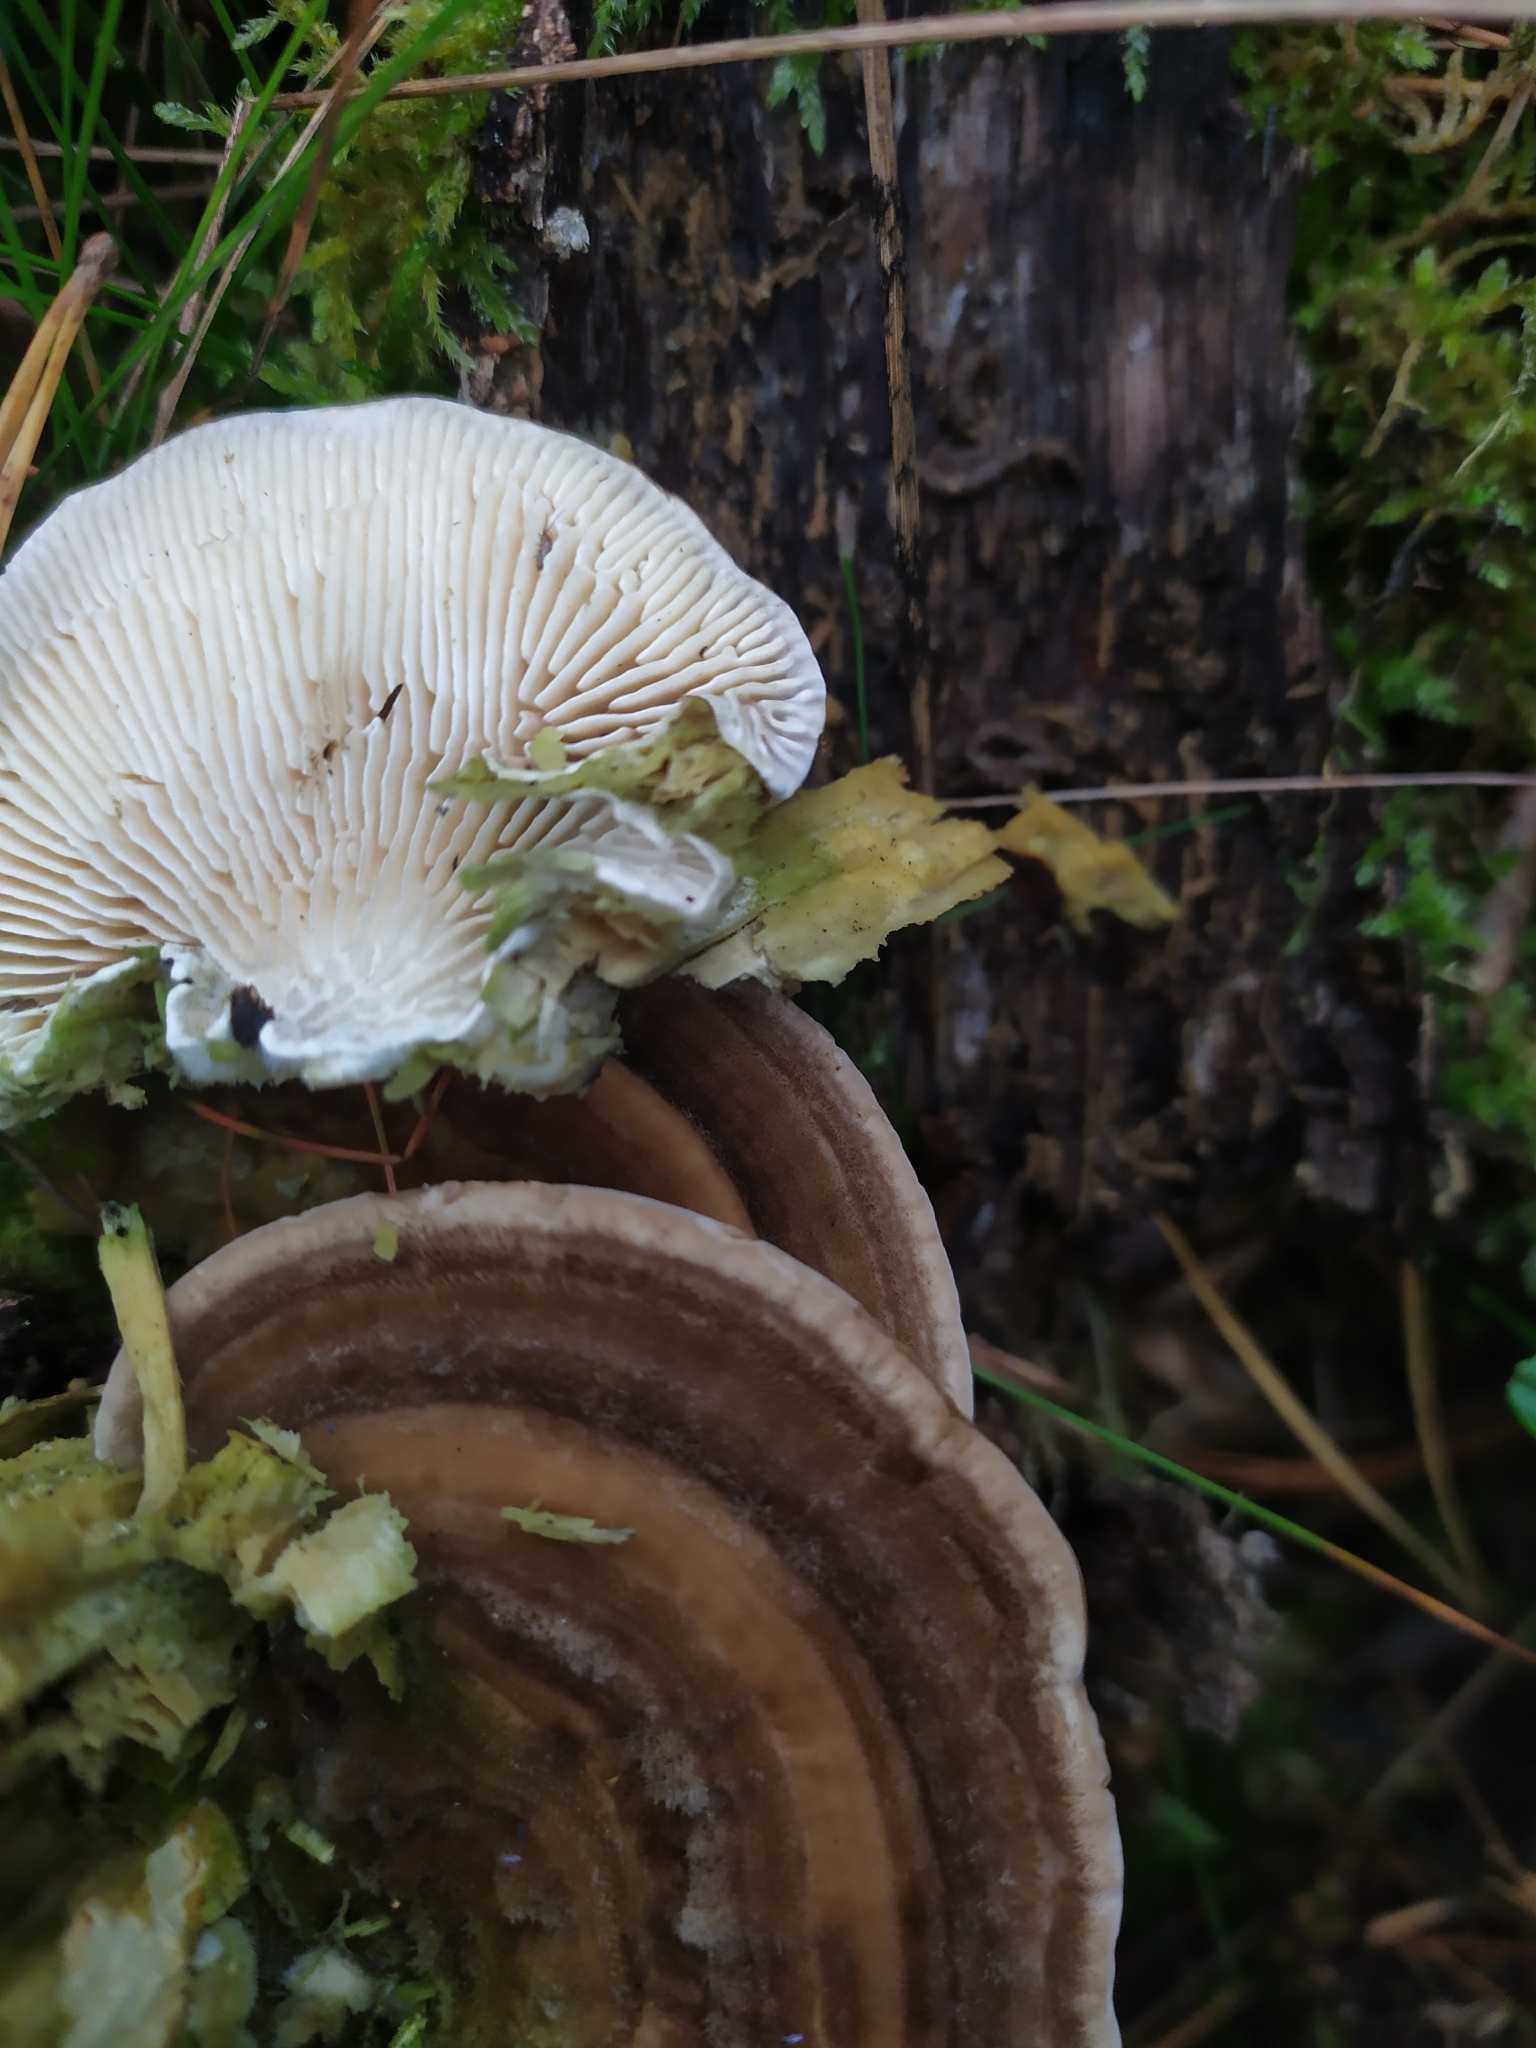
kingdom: Fungi
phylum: Basidiomycota
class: Agaricomycetes
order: Polyporales
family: Polyporaceae
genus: Daedaleopsis
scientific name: Daedaleopsis confragosa
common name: Blushing bracket
